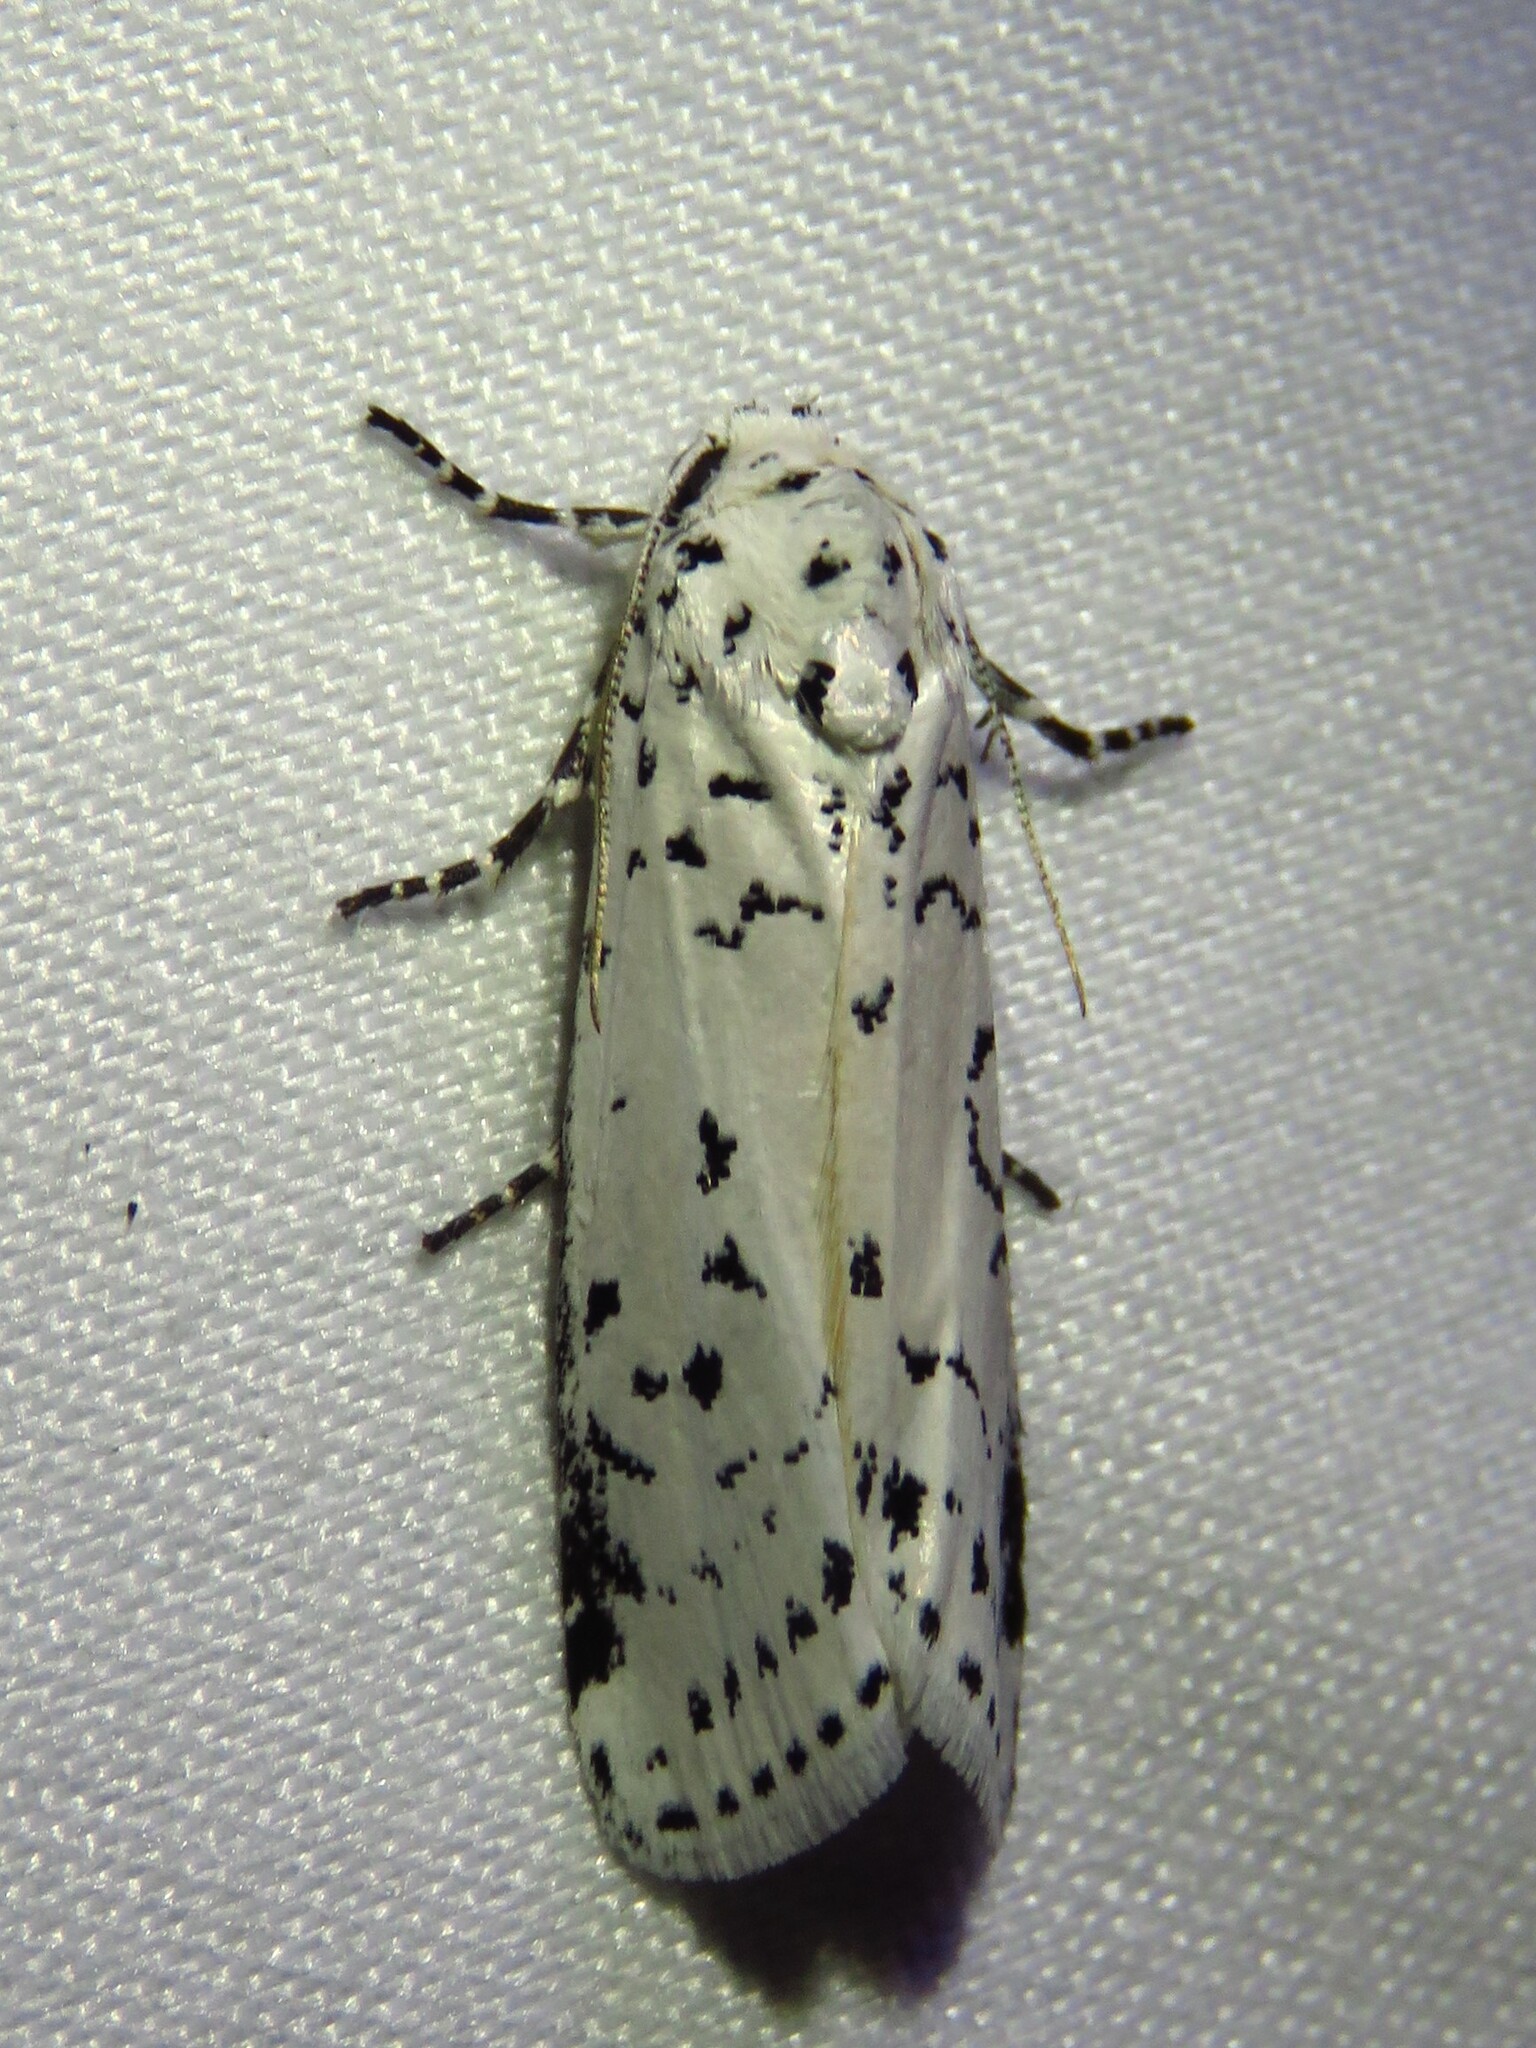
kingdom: Animalia
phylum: Arthropoda
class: Insecta
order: Lepidoptera
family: Noctuidae
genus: Cerathosia
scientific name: Cerathosia tricolor
